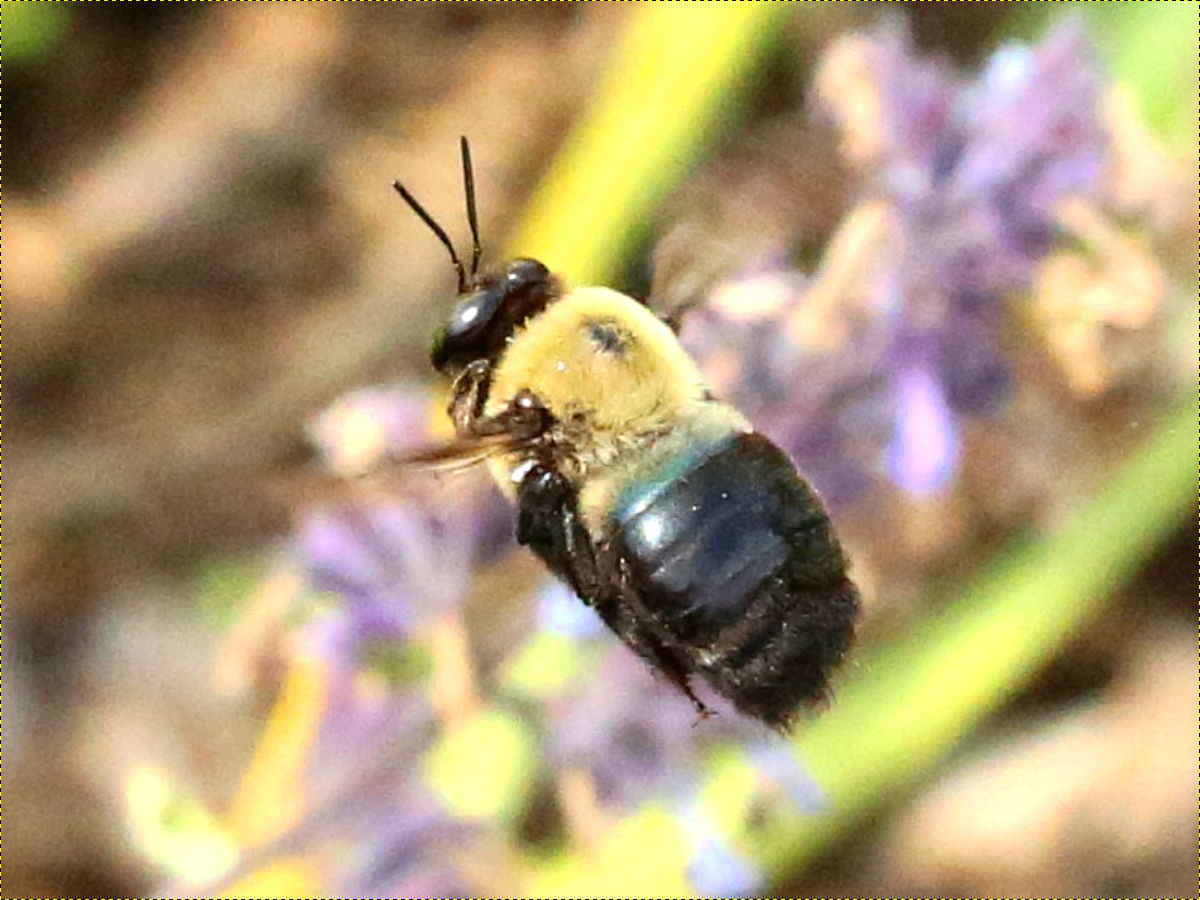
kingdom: Animalia
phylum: Arthropoda
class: Insecta
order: Hymenoptera
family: Apidae
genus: Xylocopa
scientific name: Xylocopa virginica
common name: Carpenter bee
